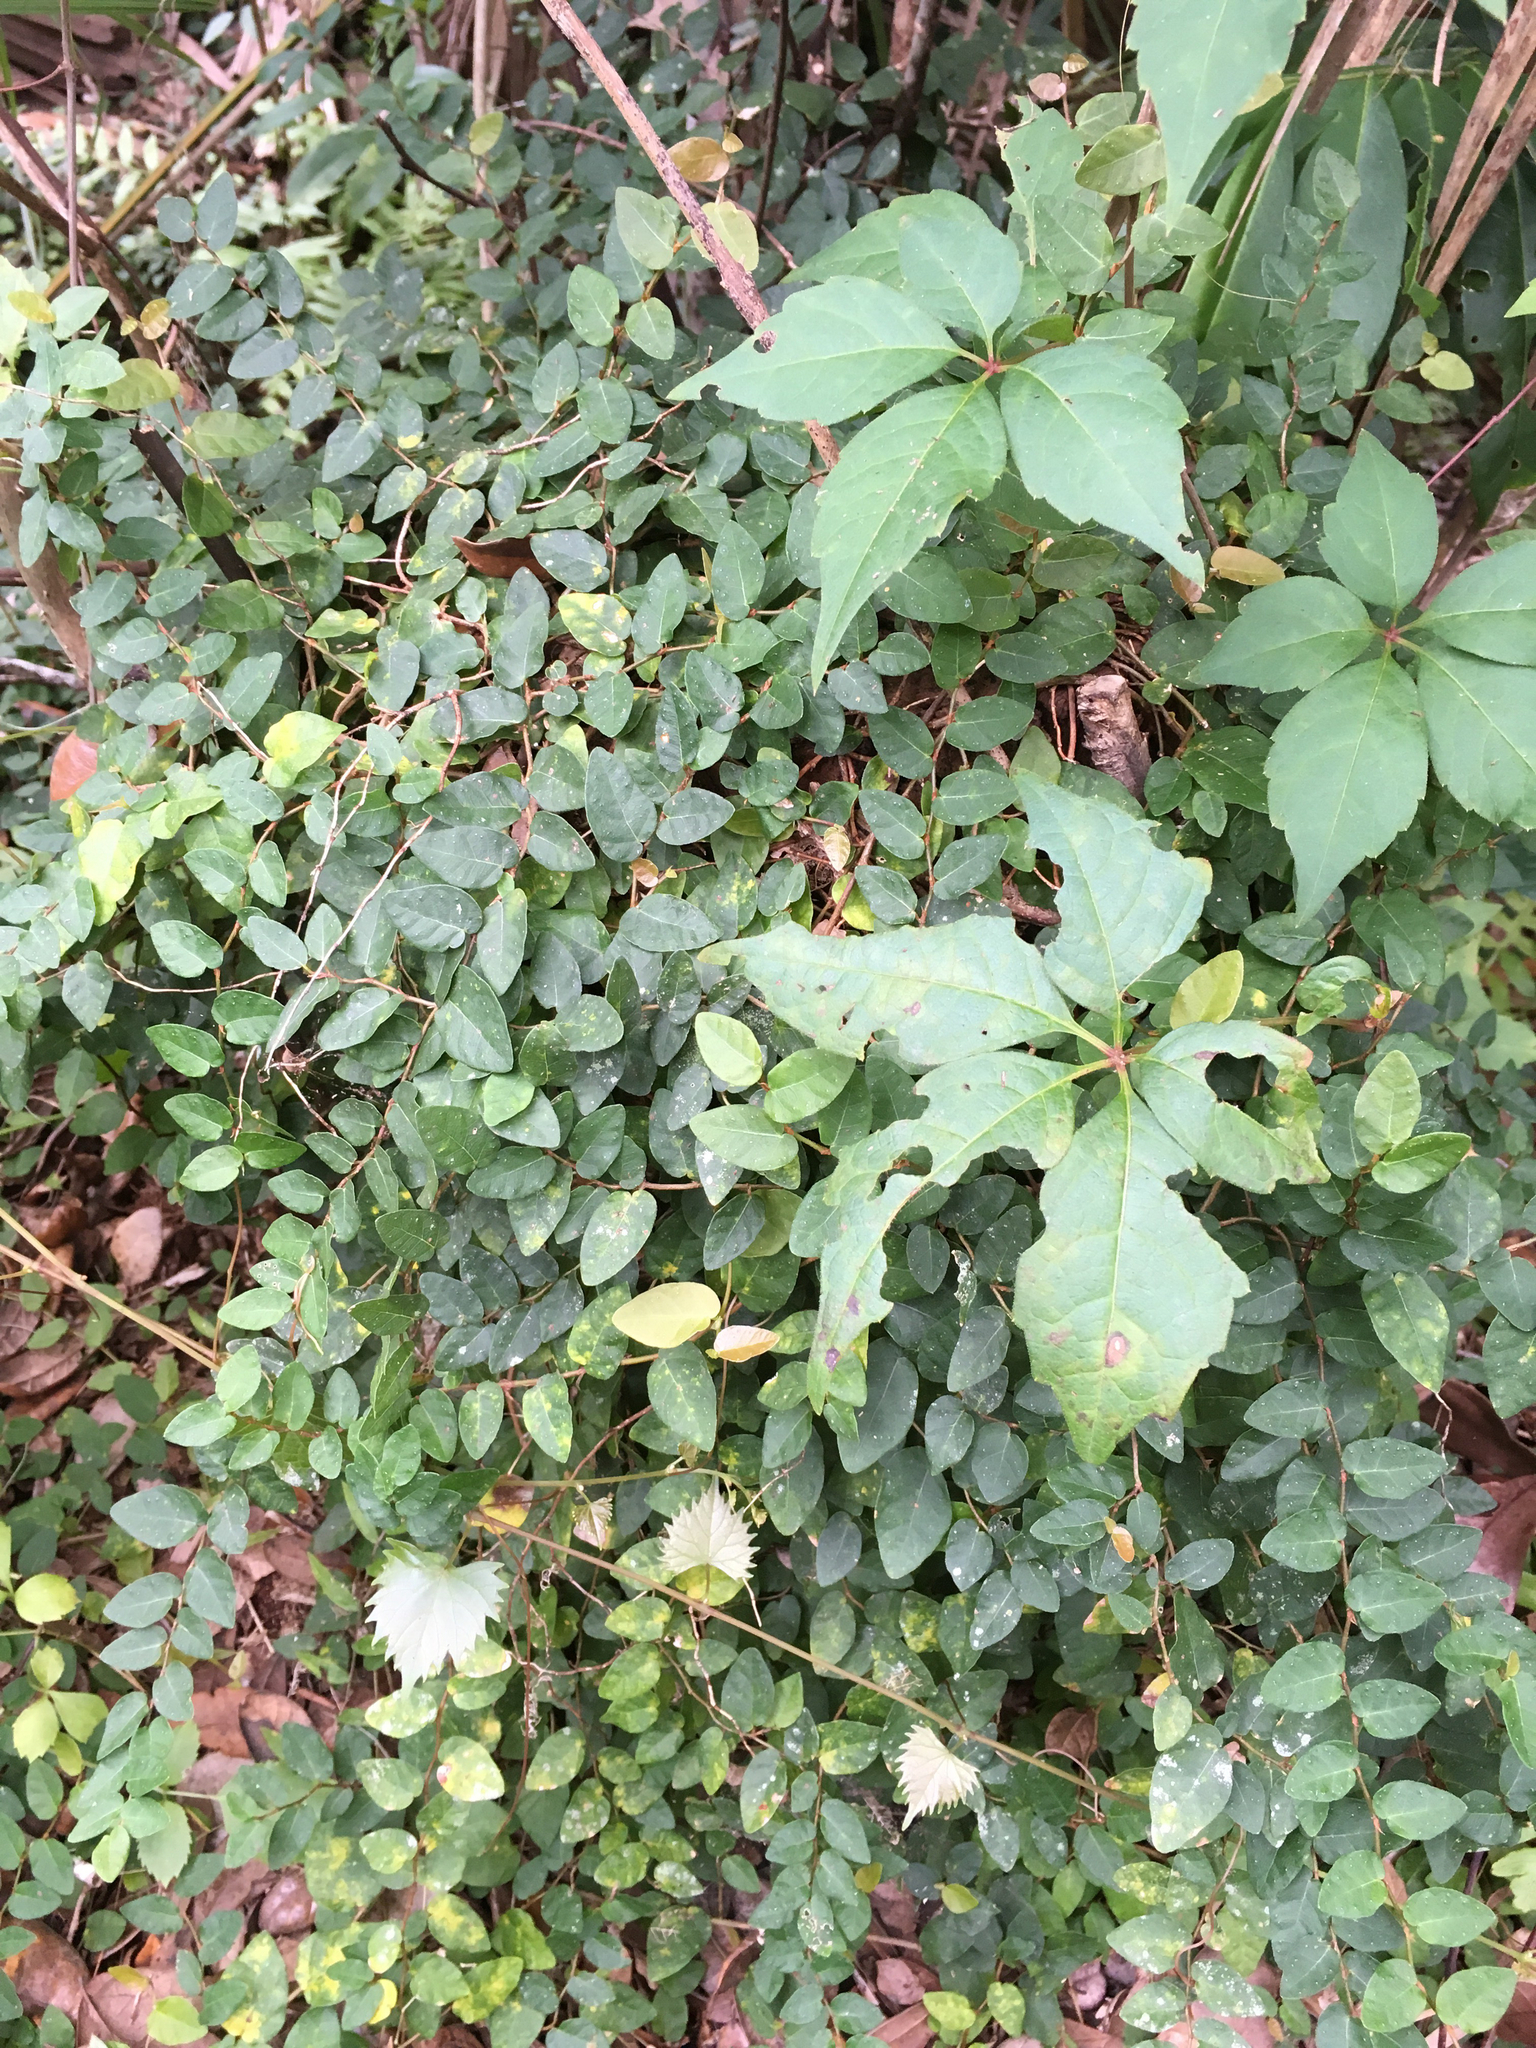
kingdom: Plantae
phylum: Tracheophyta
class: Magnoliopsida
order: Rosales
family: Moraceae
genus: Ficus
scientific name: Ficus pumila
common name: Climbingfig
